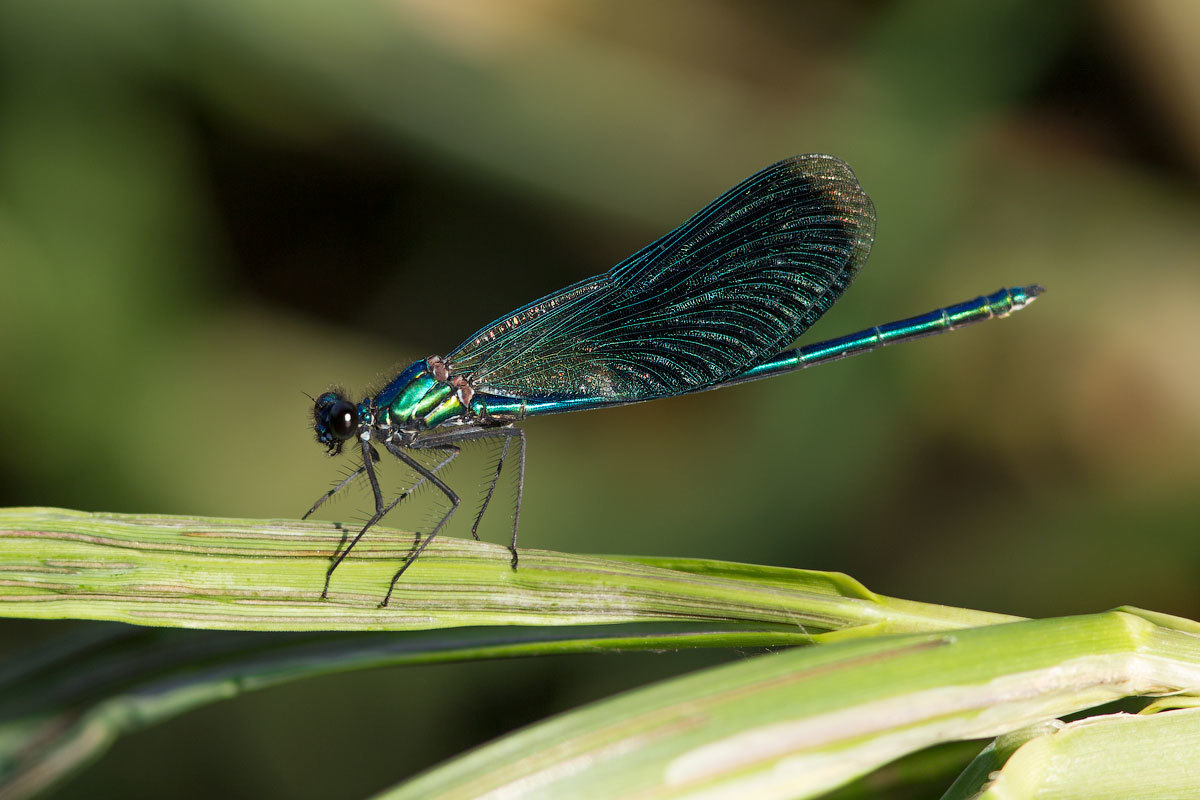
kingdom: Animalia
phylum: Arthropoda
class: Insecta
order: Odonata
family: Calopterygidae
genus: Calopteryx
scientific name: Calopteryx splendens
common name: Banded demoiselle
